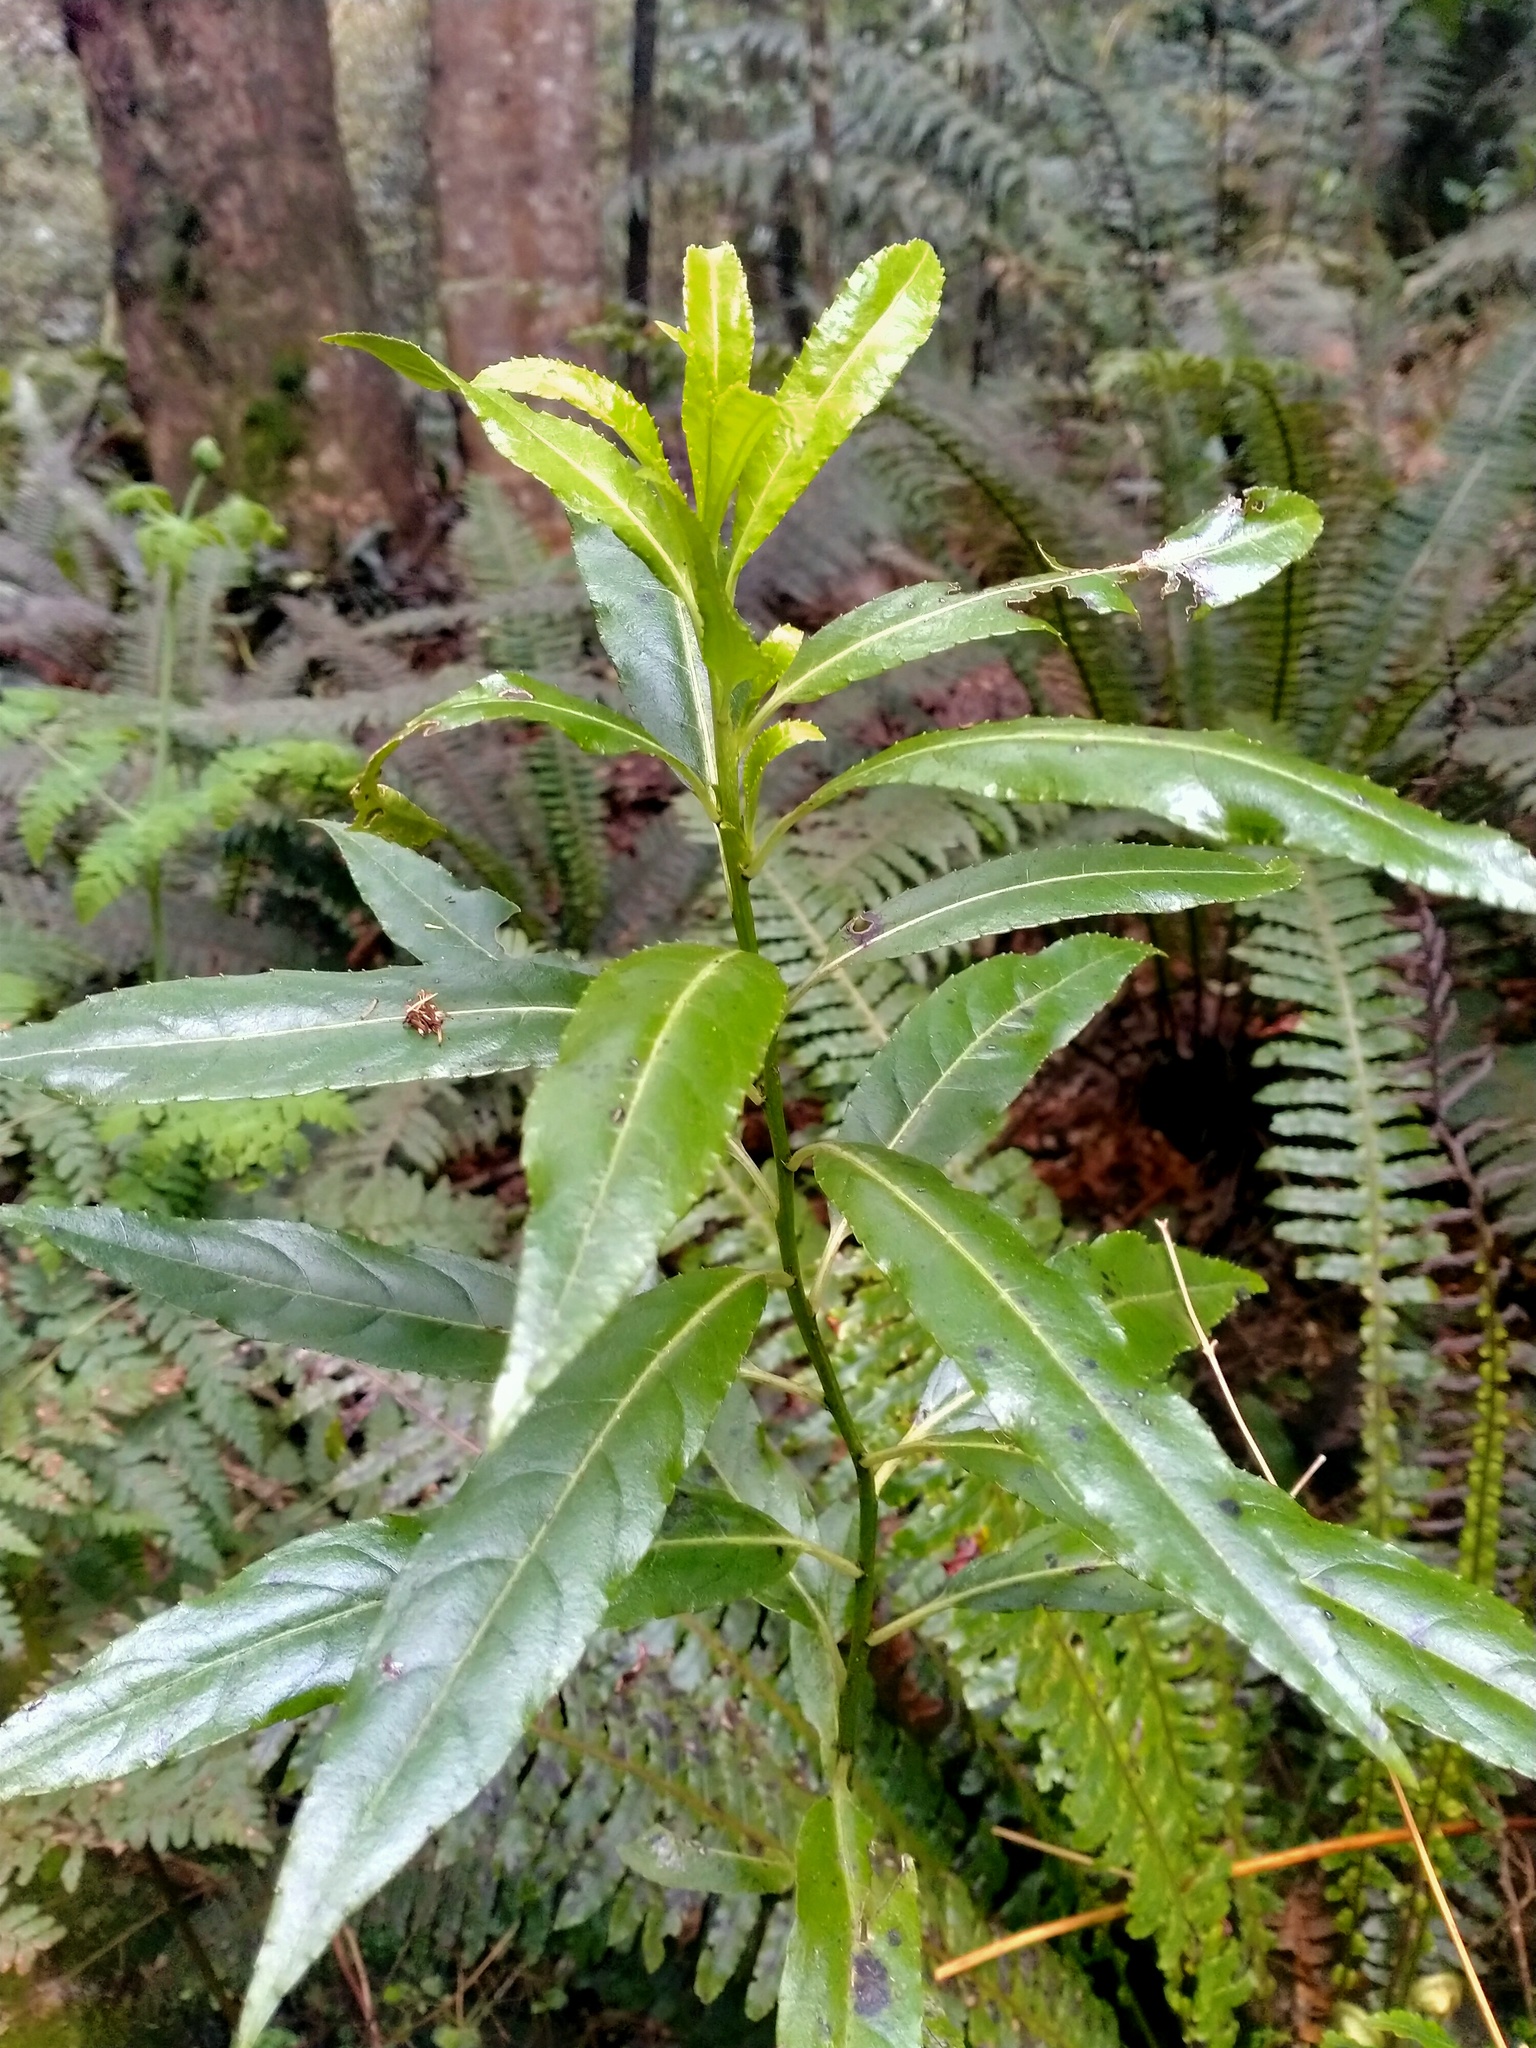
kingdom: Plantae
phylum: Tracheophyta
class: Magnoliopsida
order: Malpighiales
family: Violaceae
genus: Melicytus
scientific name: Melicytus lanceolatus
